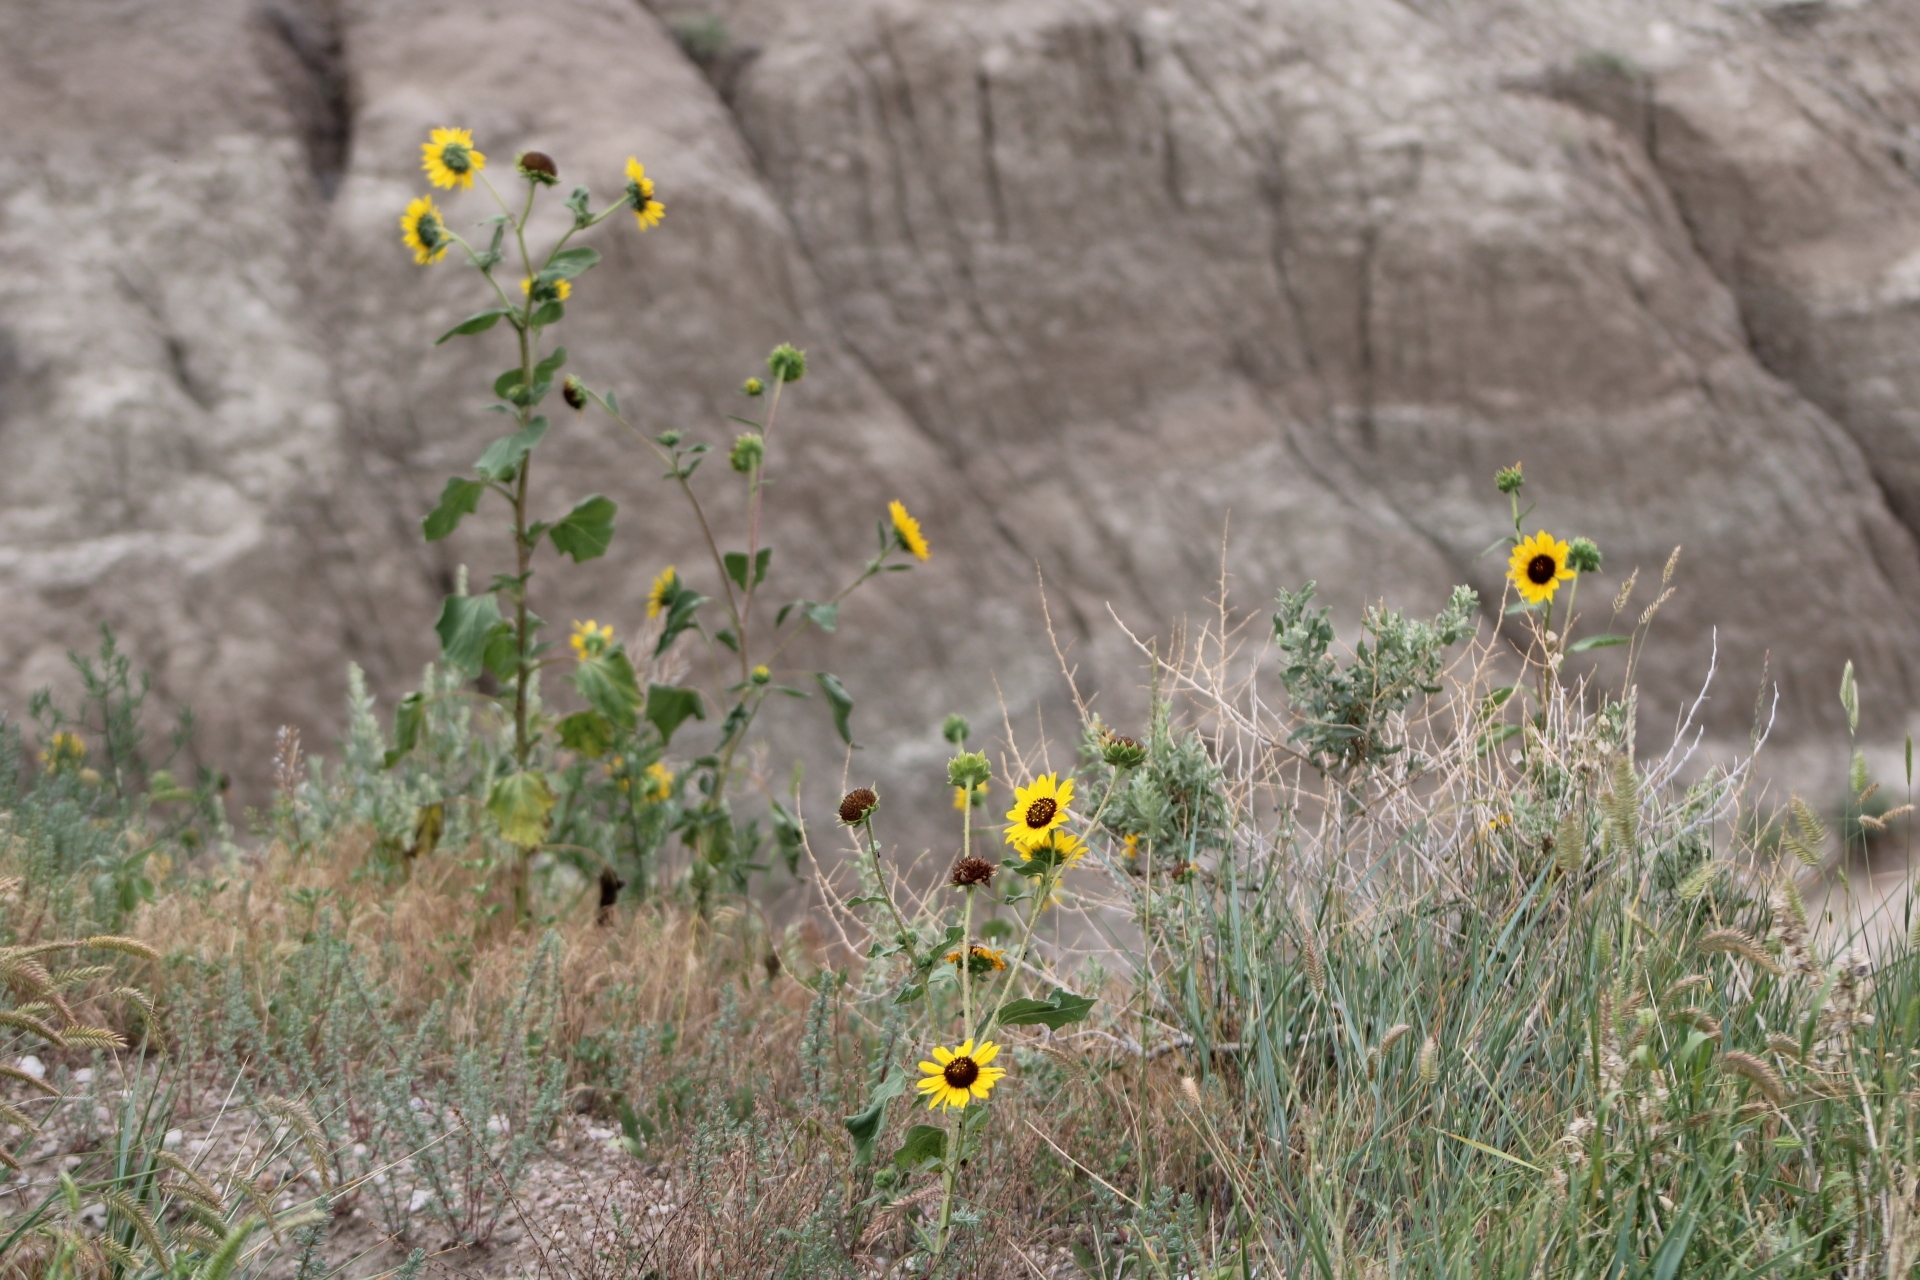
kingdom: Plantae
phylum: Tracheophyta
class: Magnoliopsida
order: Asterales
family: Asteraceae
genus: Helianthus
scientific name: Helianthus annuus
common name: Sunflower
